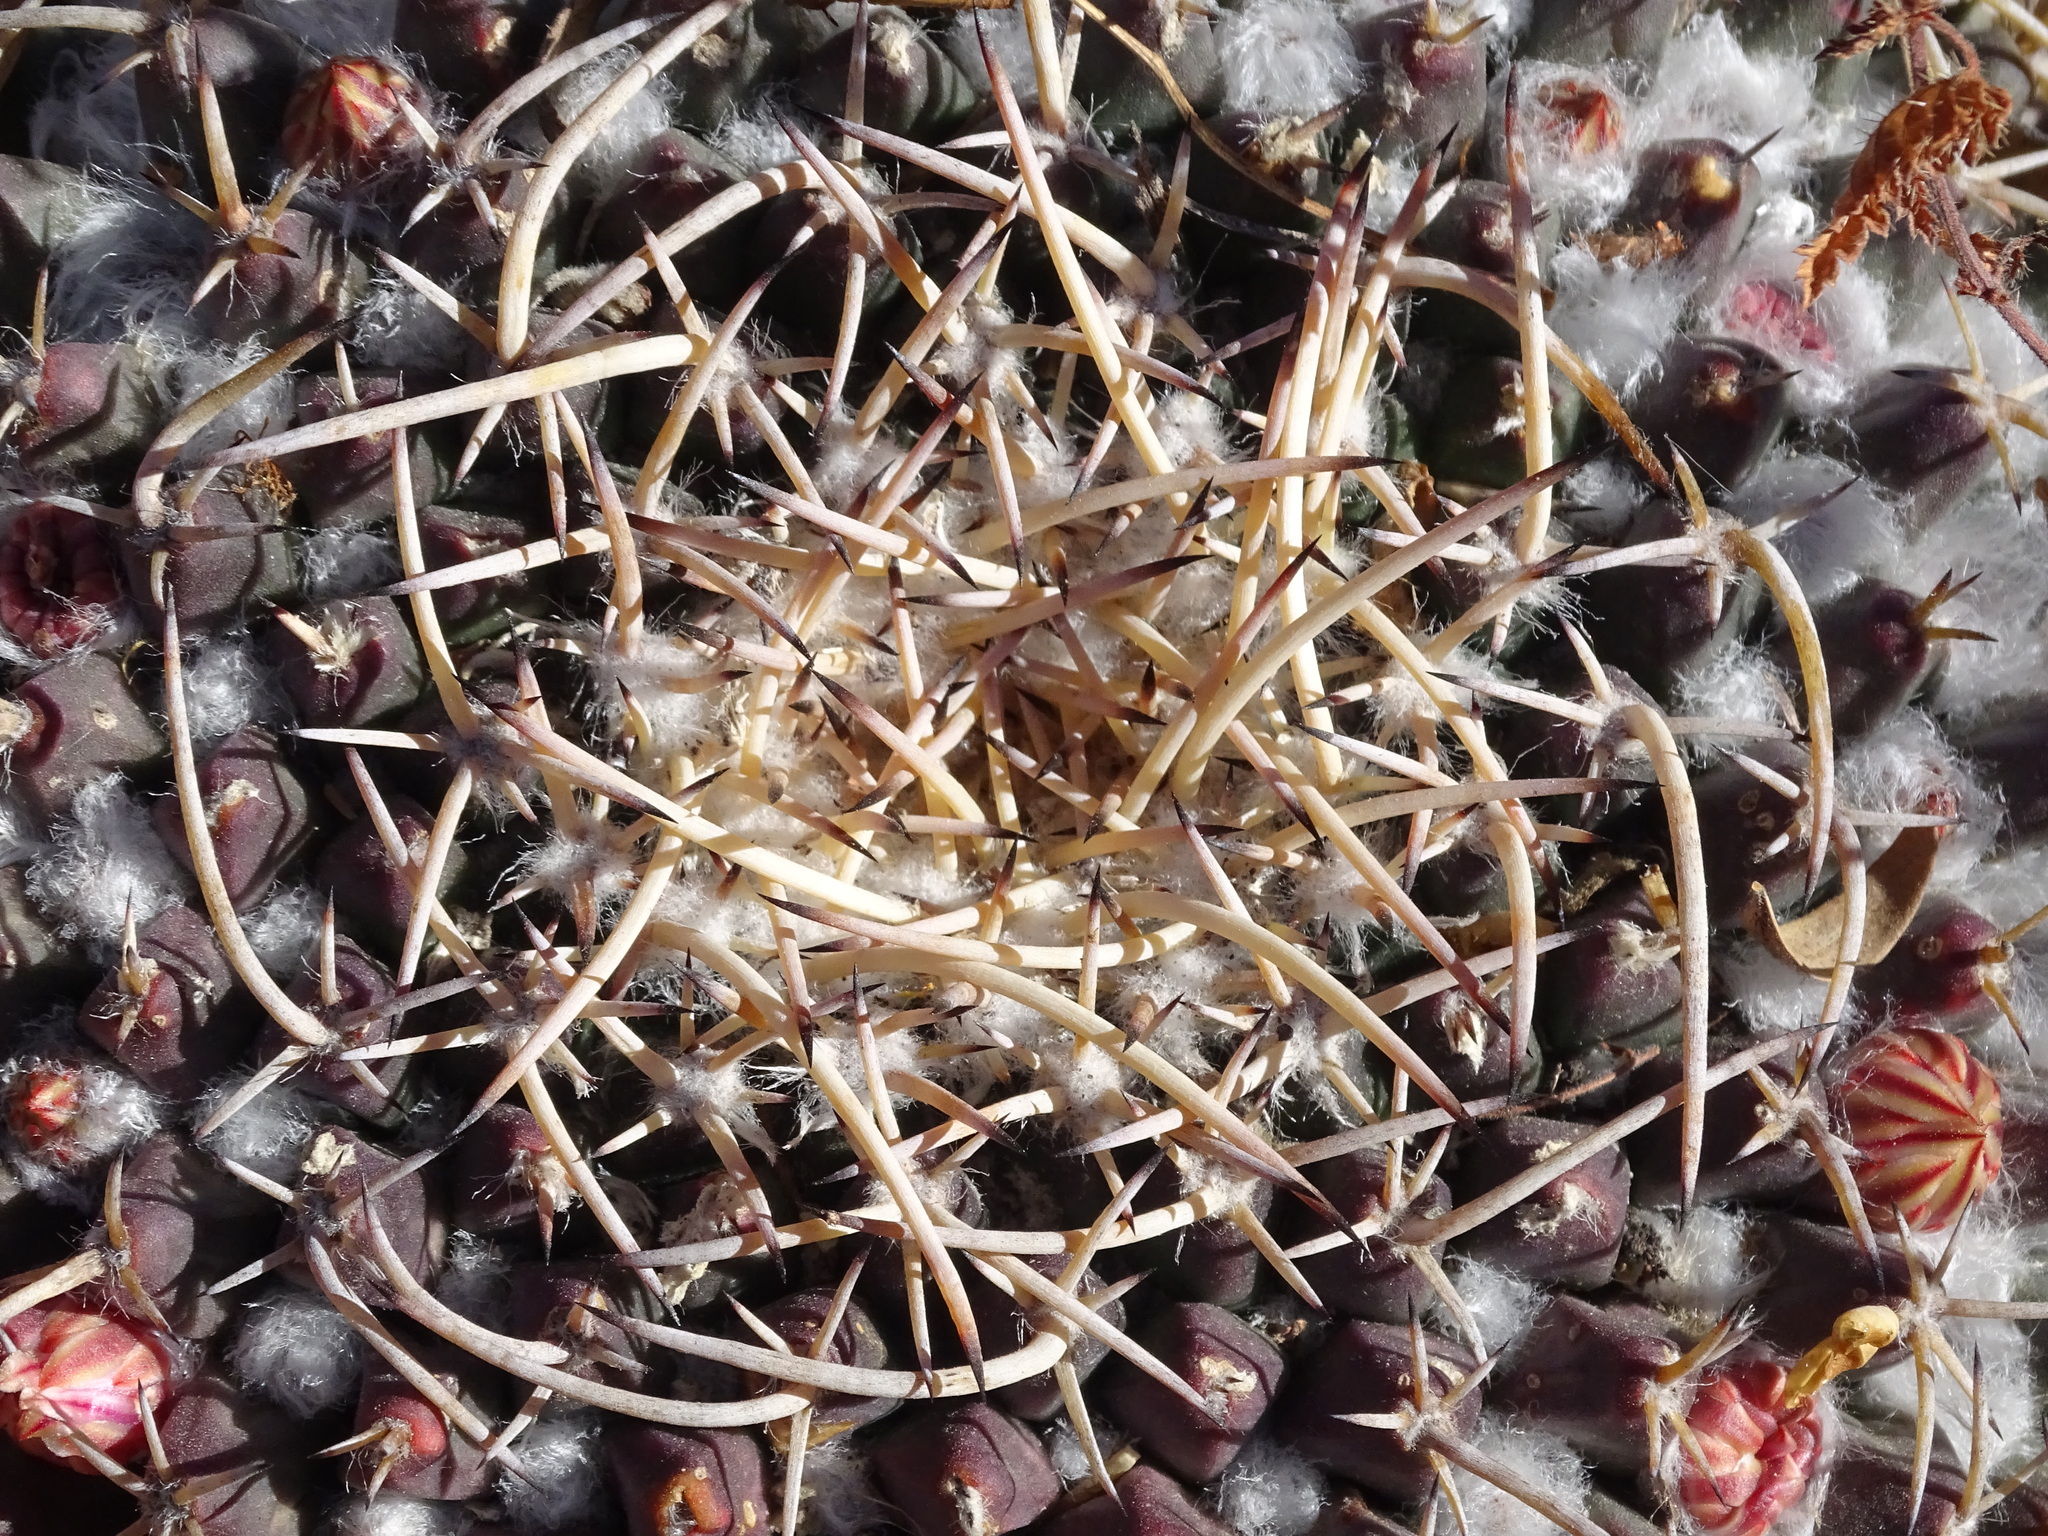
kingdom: Plantae
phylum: Tracheophyta
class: Magnoliopsida
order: Caryophyllales
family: Cactaceae
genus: Mammillaria
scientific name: Mammillaria magnimamma
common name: Mexican pincushion
